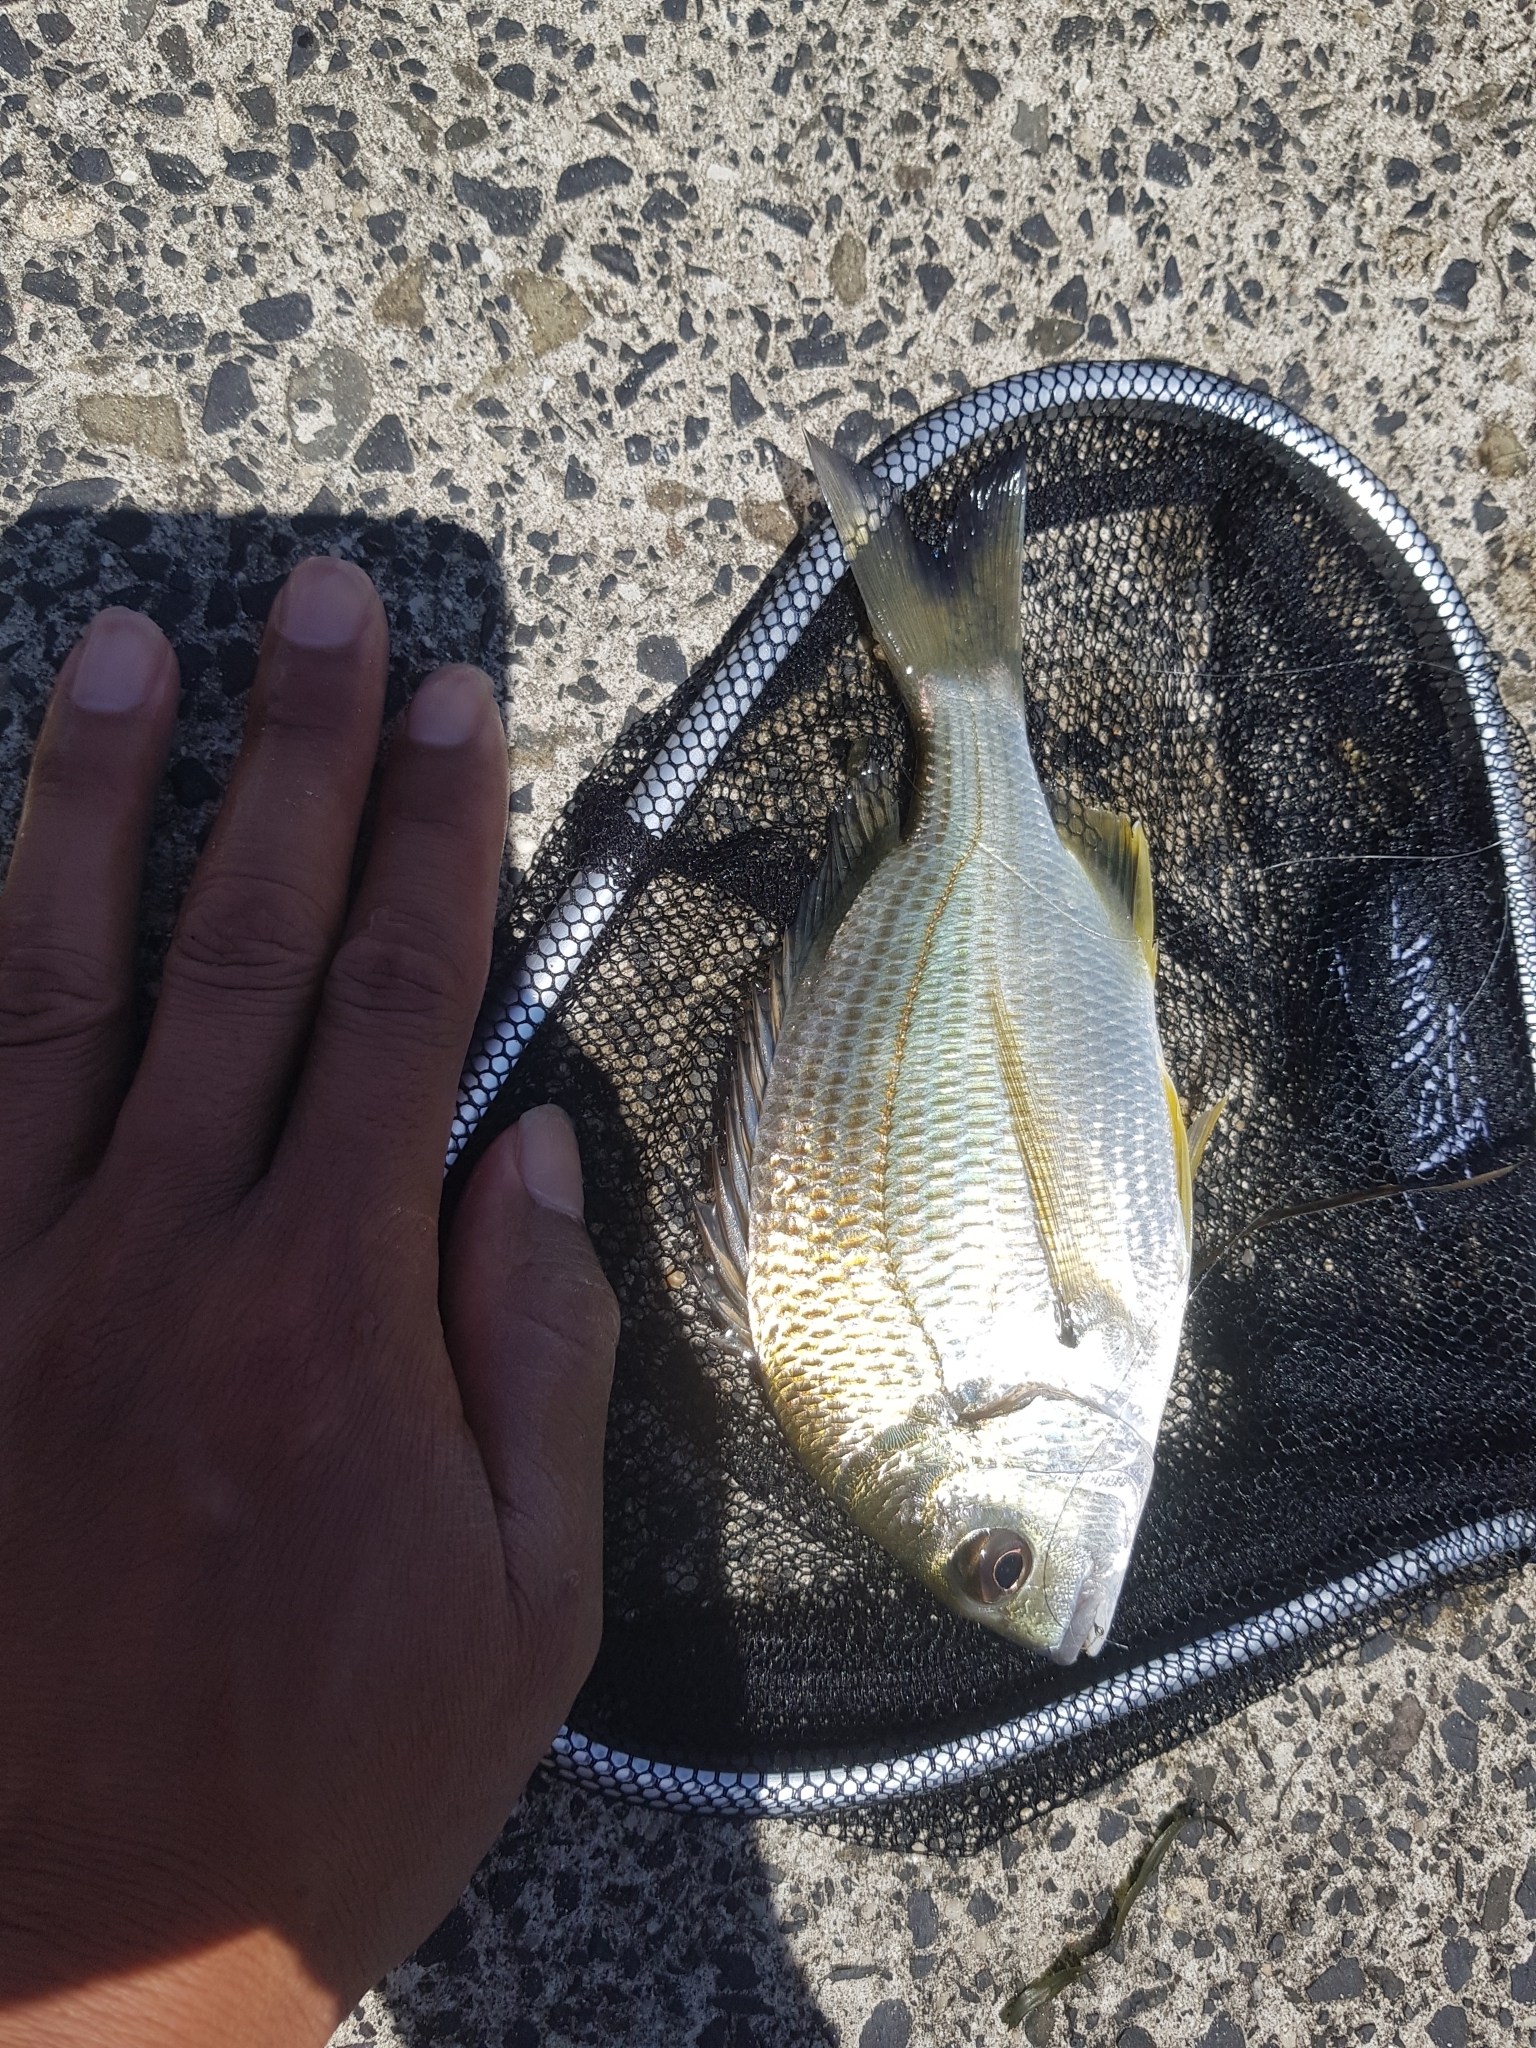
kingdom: Animalia
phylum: Chordata
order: Perciformes
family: Sparidae
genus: Acanthopagrus
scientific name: Acanthopagrus australis
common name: Surf bream
